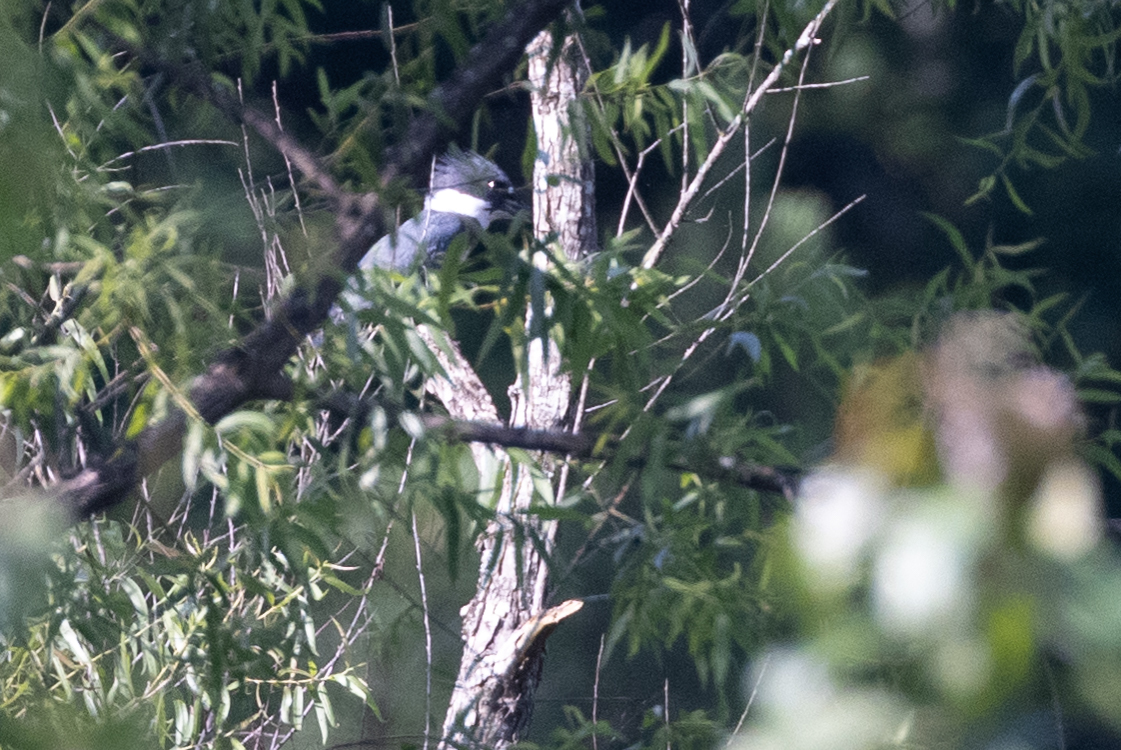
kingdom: Animalia
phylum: Chordata
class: Aves
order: Coraciiformes
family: Alcedinidae
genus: Megaceryle
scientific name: Megaceryle alcyon
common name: Belted kingfisher
